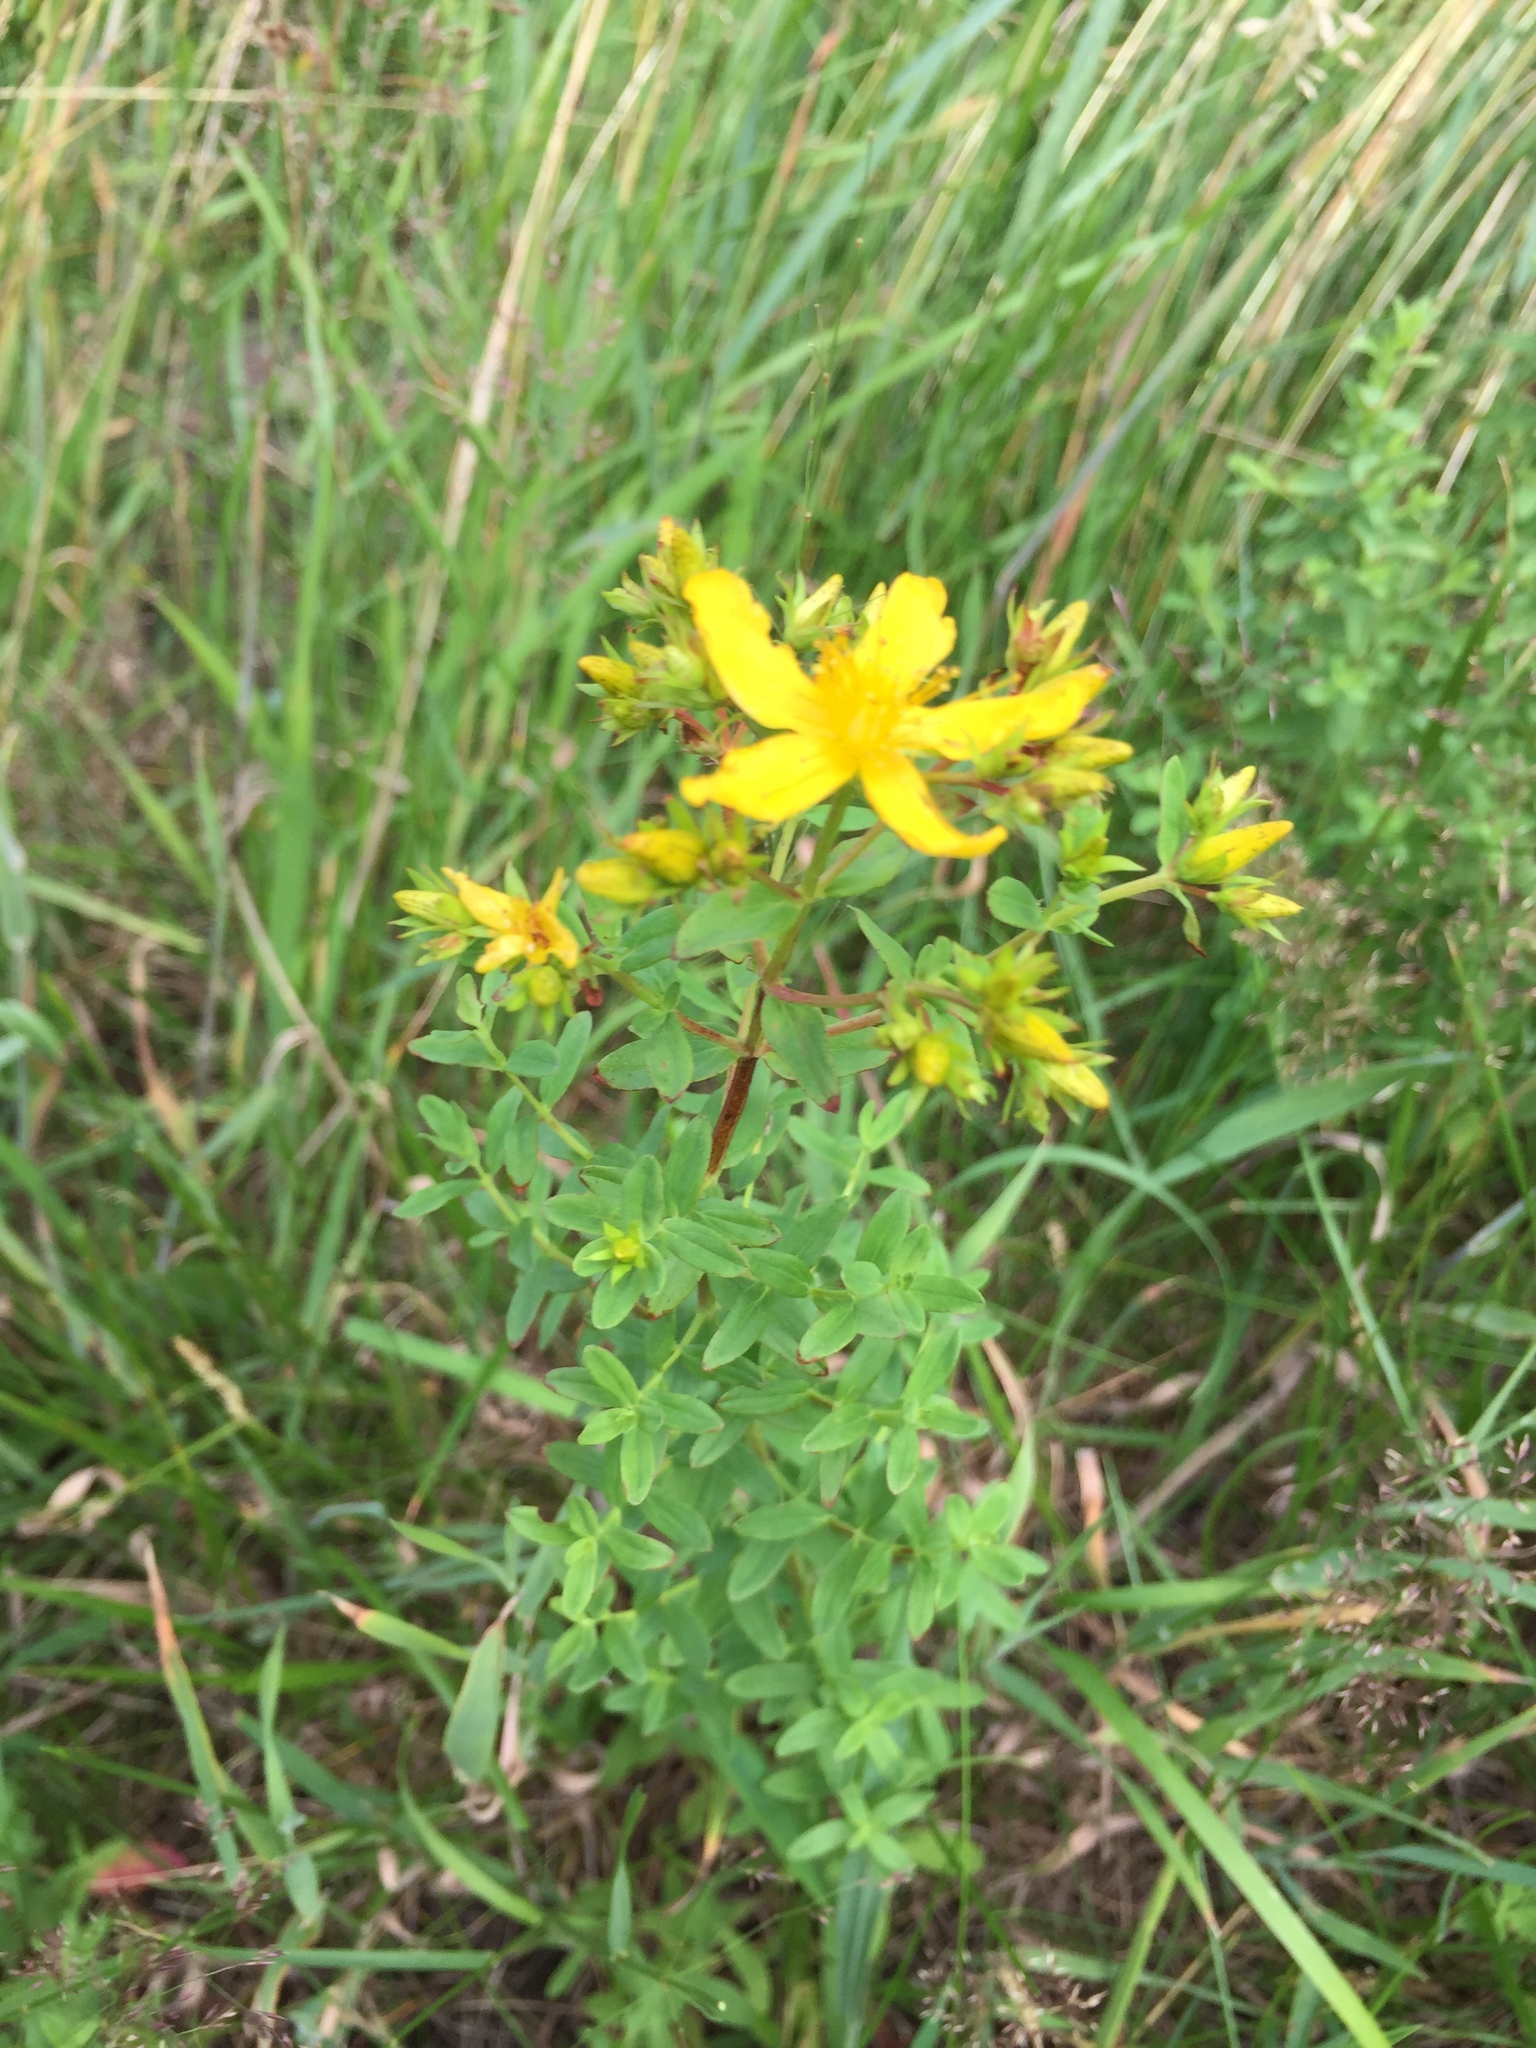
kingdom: Plantae
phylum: Tracheophyta
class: Magnoliopsida
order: Malpighiales
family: Hypericaceae
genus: Hypericum
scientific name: Hypericum perforatum
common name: Common st. johnswort
